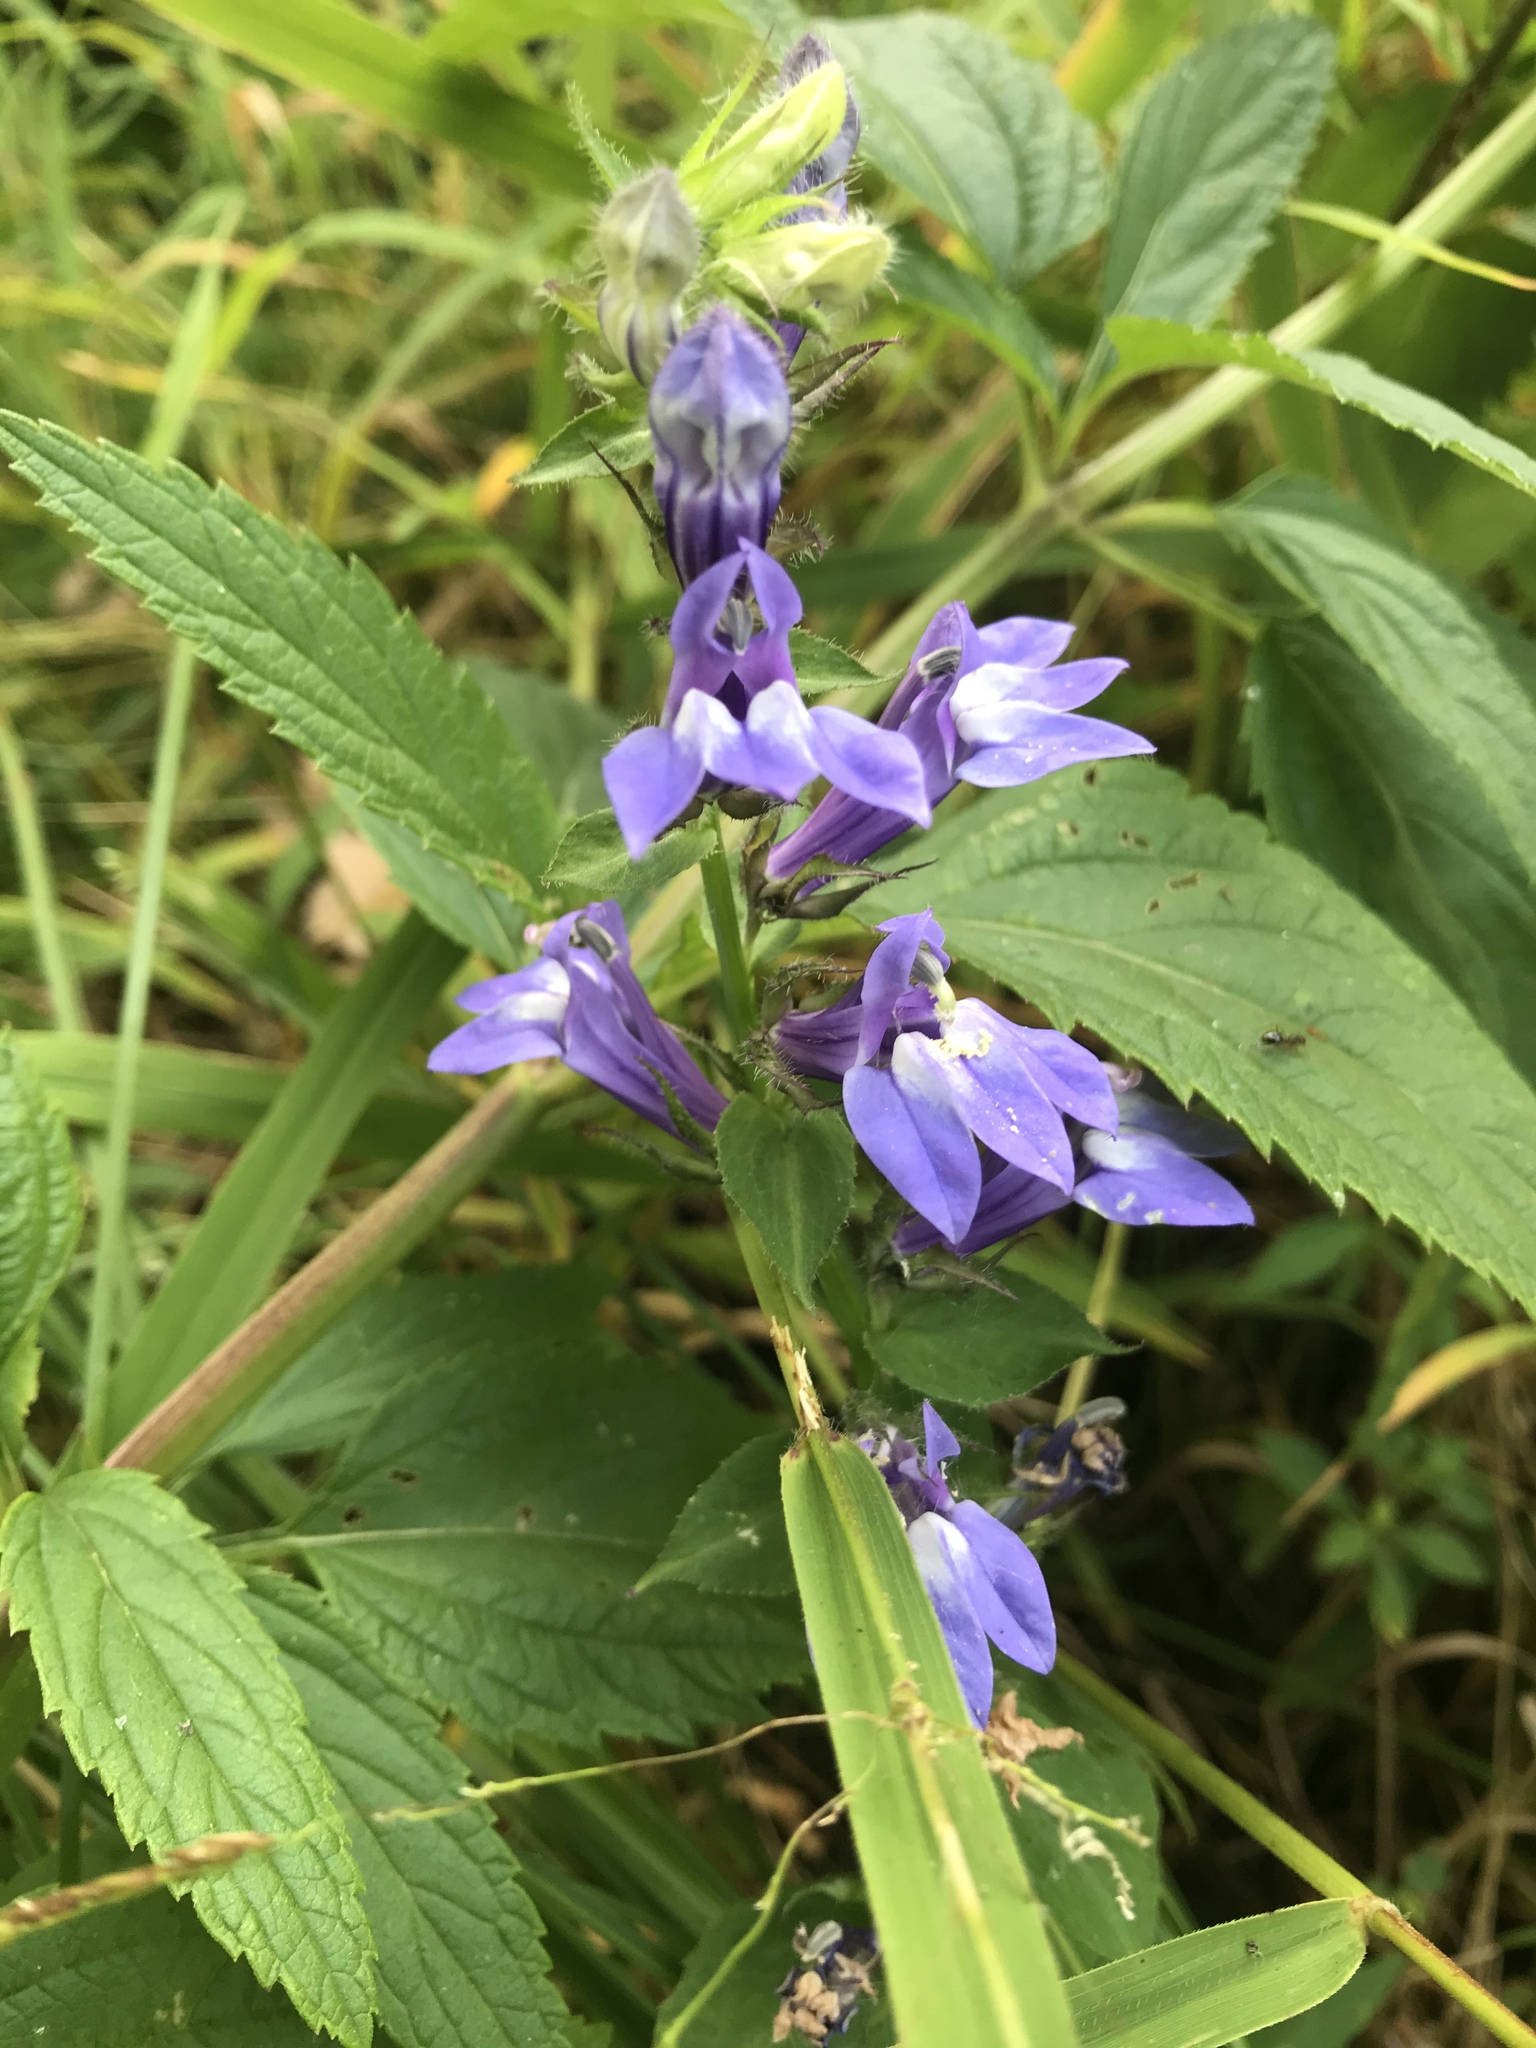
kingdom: Plantae
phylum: Tracheophyta
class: Magnoliopsida
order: Asterales
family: Campanulaceae
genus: Lobelia
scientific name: Lobelia siphilitica
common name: Great lobelia
